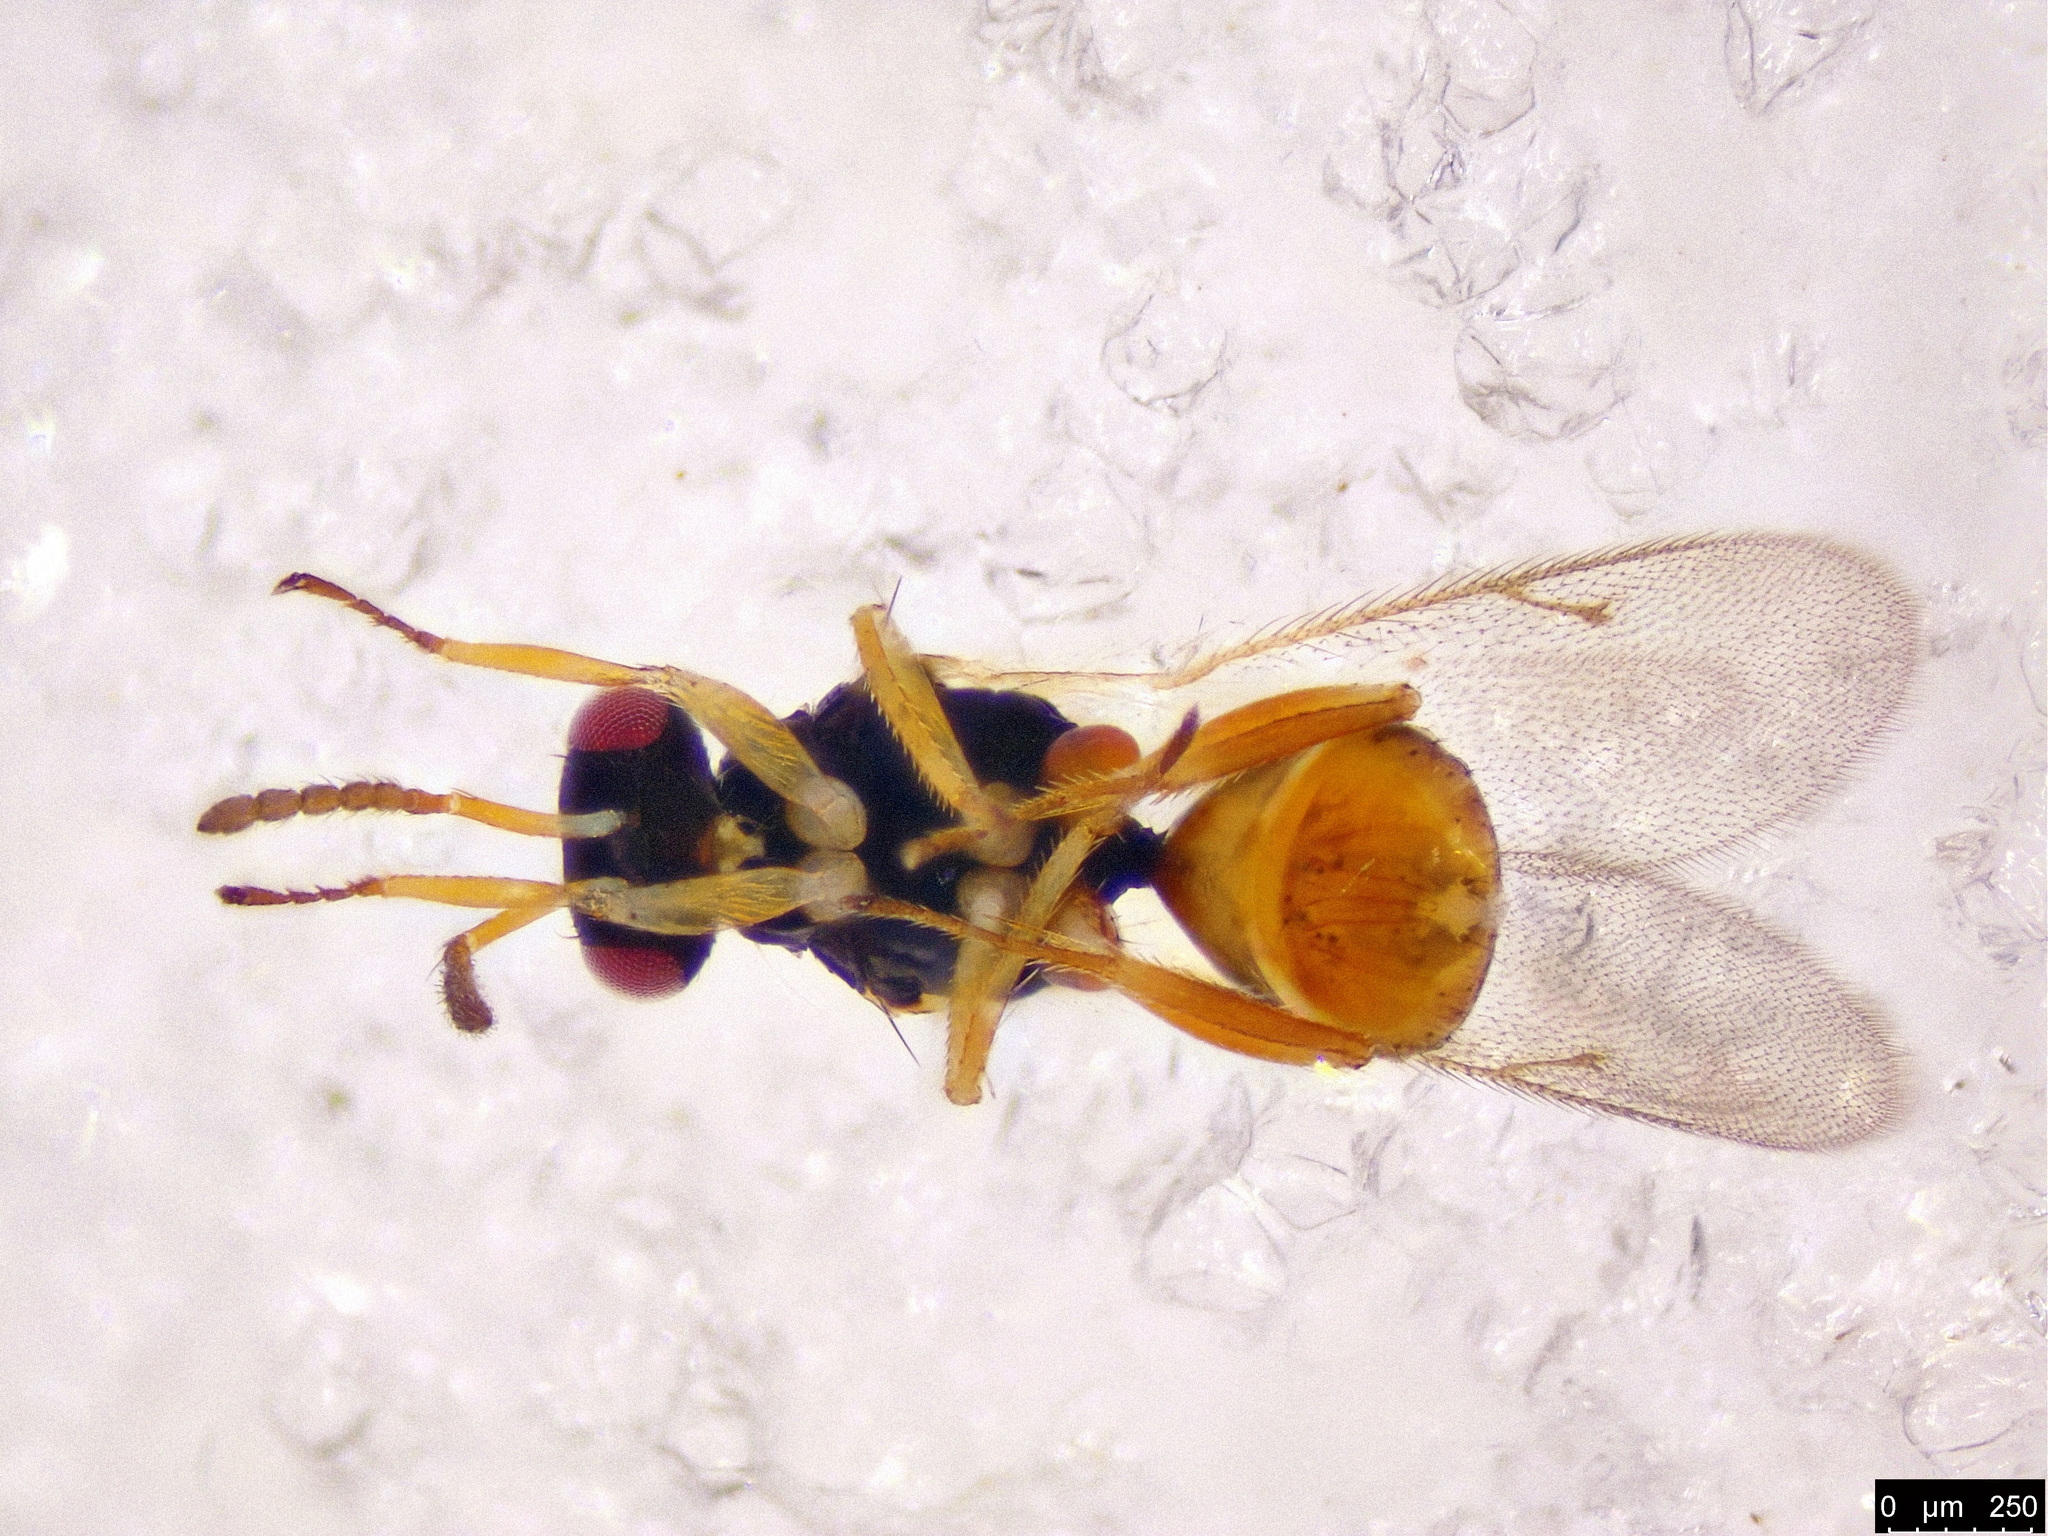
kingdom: Animalia
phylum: Arthropoda
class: Insecta
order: Hymenoptera
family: Eulophidae
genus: Euplectrus
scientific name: Euplectrus
